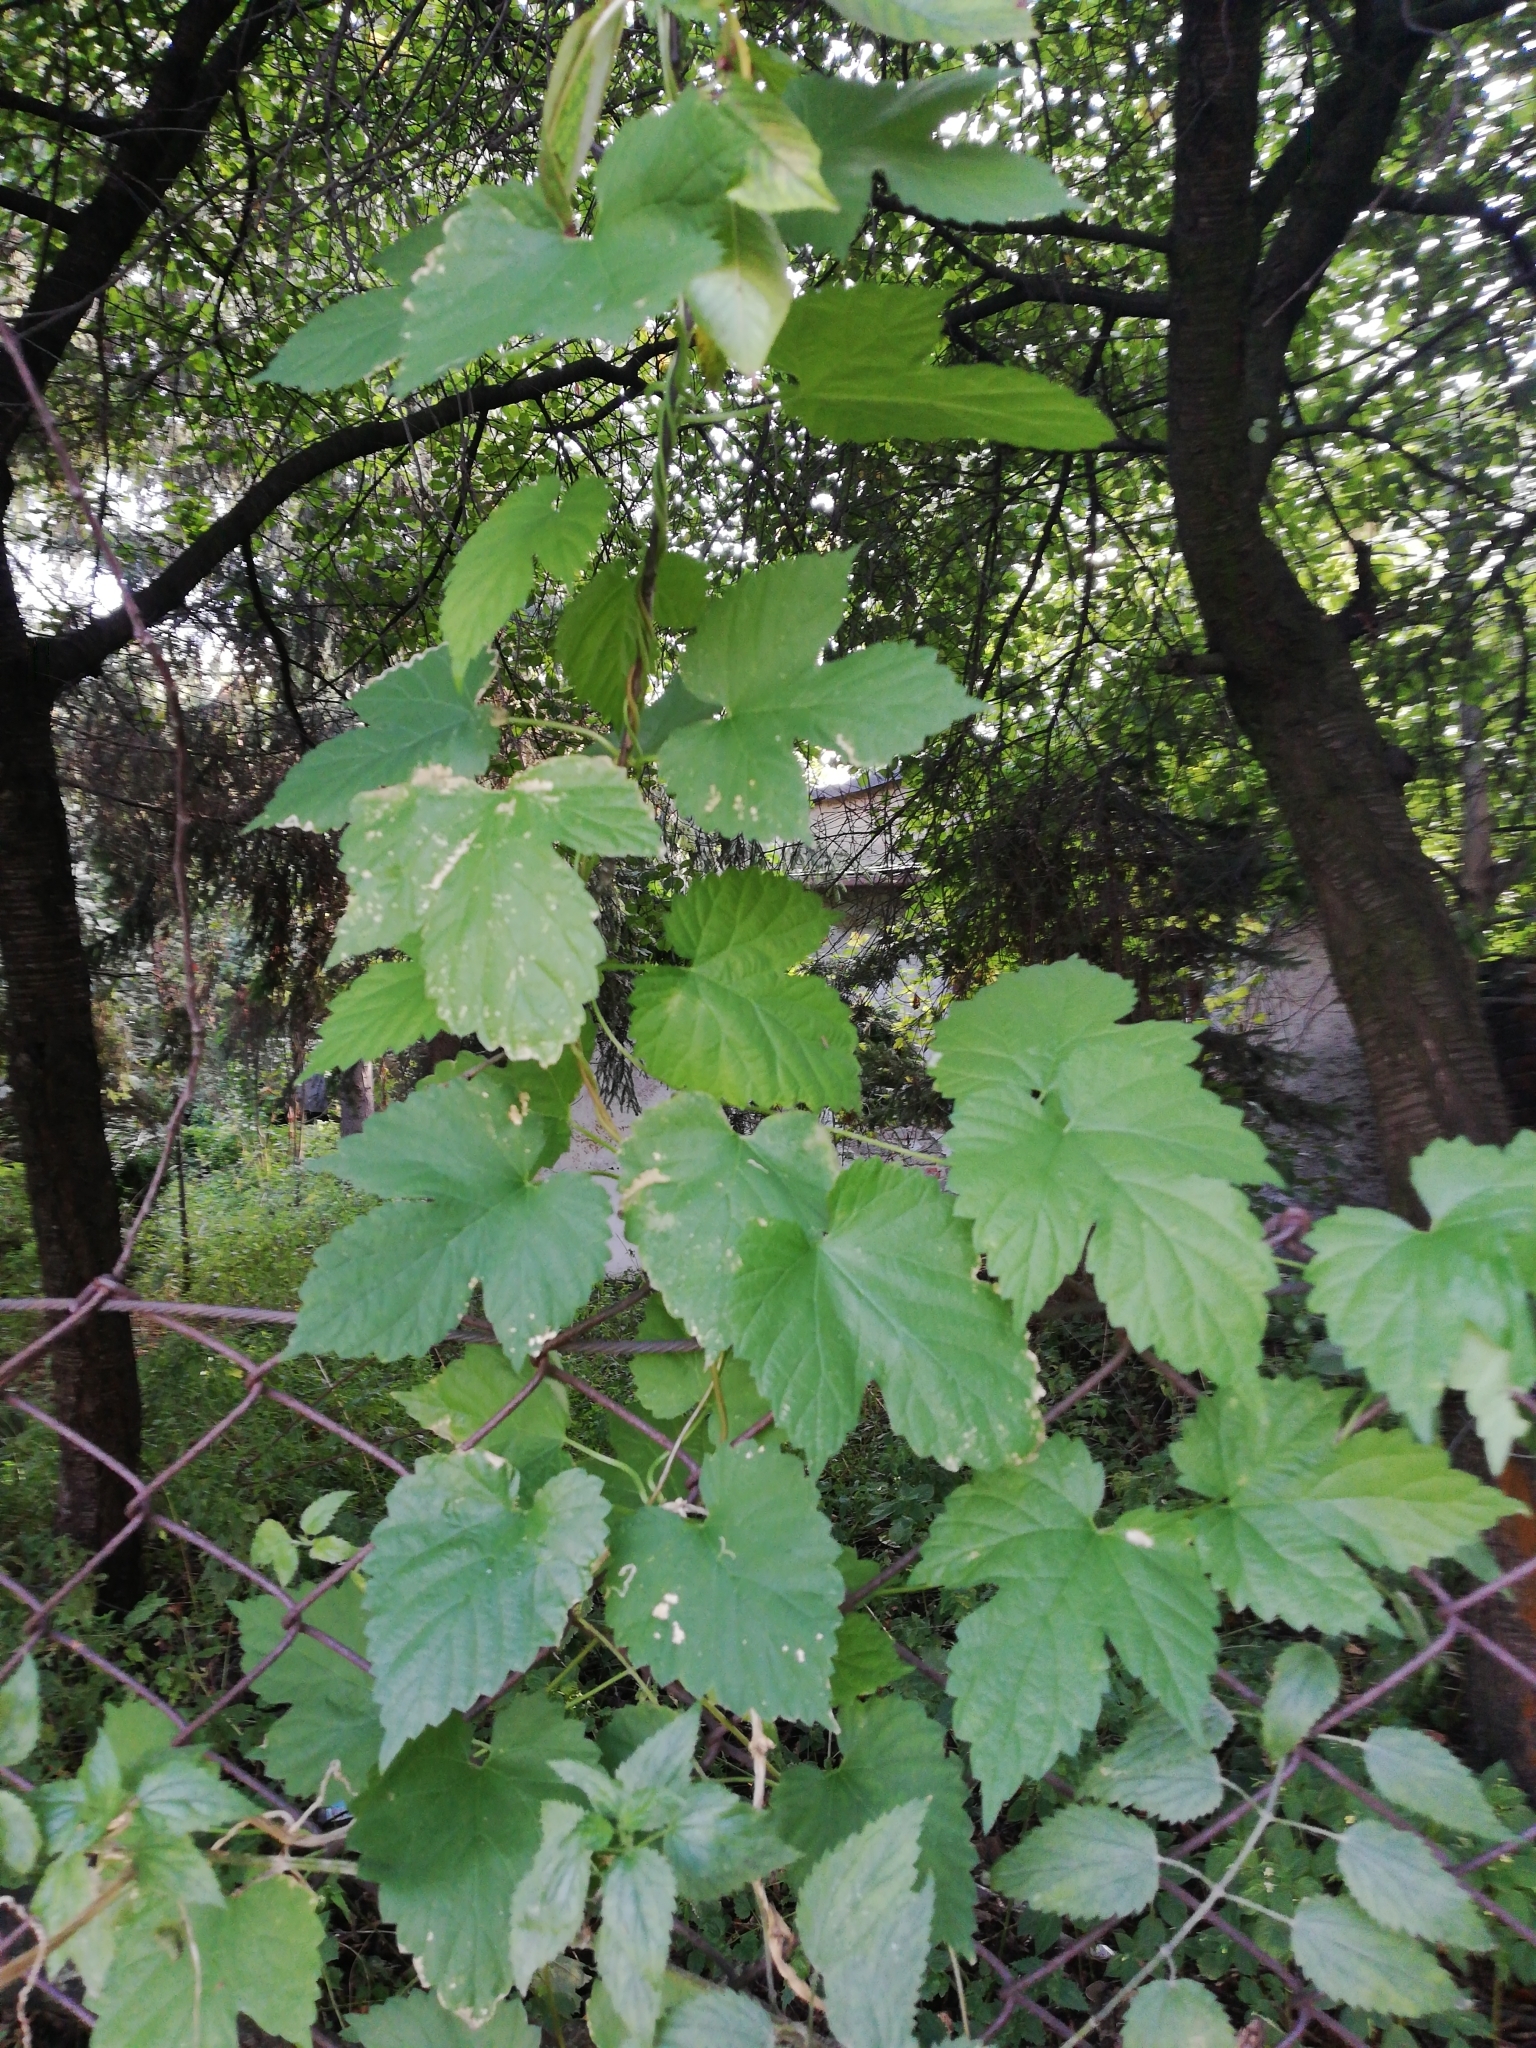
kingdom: Plantae
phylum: Tracheophyta
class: Magnoliopsida
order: Rosales
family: Cannabaceae
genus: Humulus
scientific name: Humulus lupulus
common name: Hop
